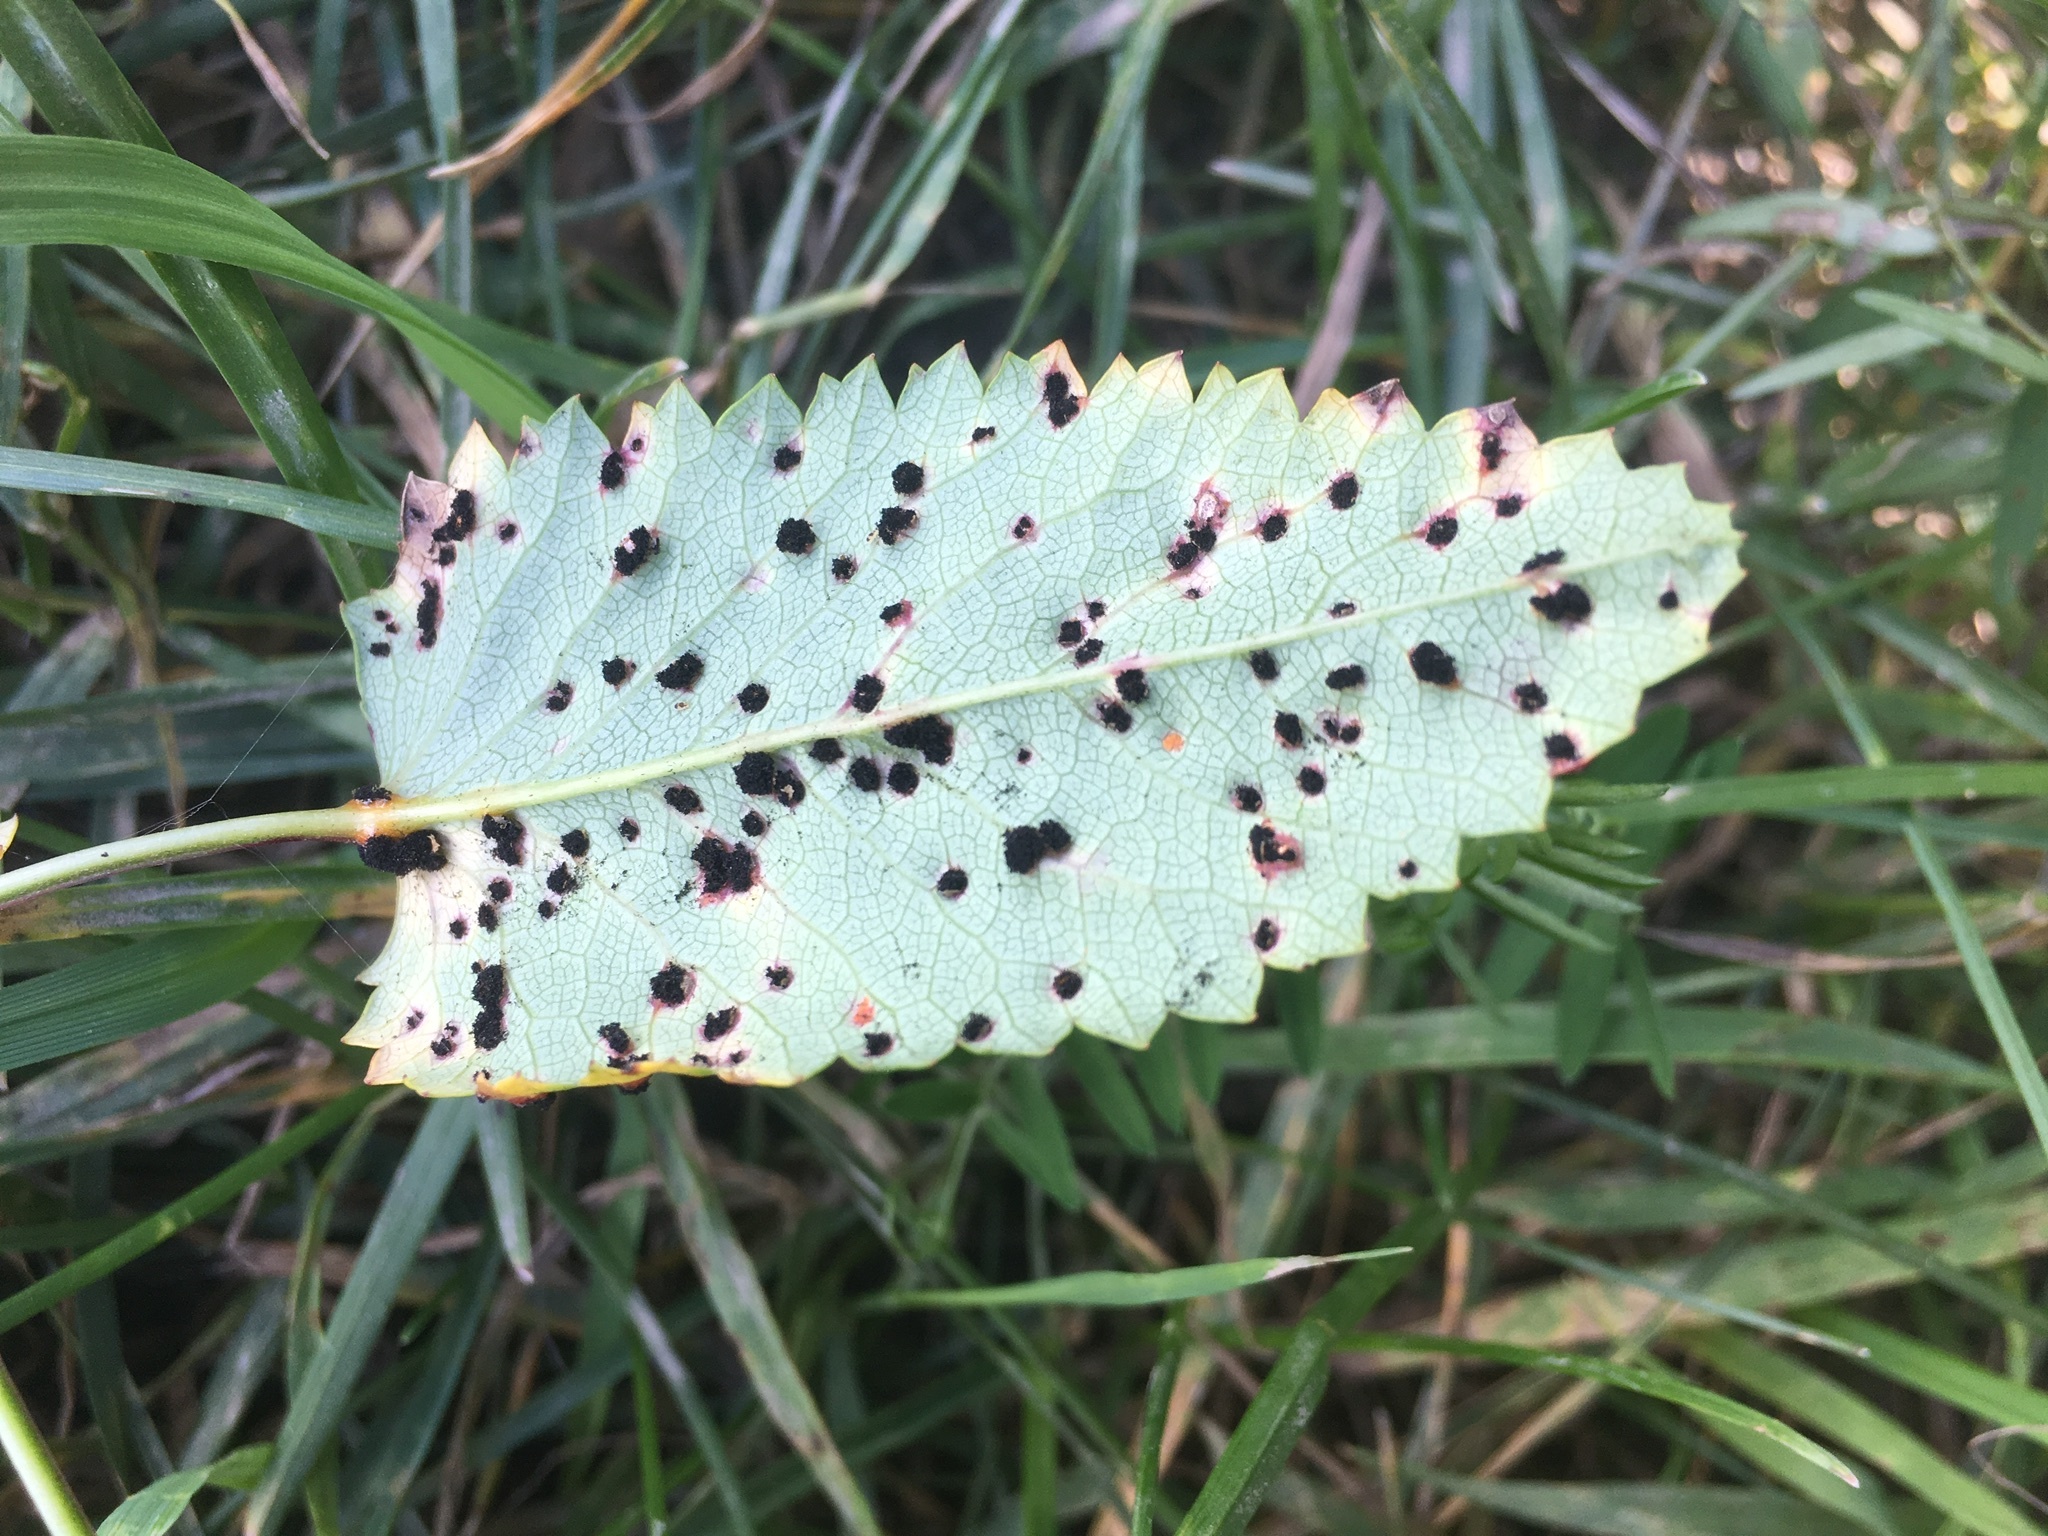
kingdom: Fungi
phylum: Basidiomycota
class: Pucciniomycetes
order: Pucciniales
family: Phragmidiaceae
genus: Xenodochus
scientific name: Xenodochus carbonarius
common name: Great burnet rust
